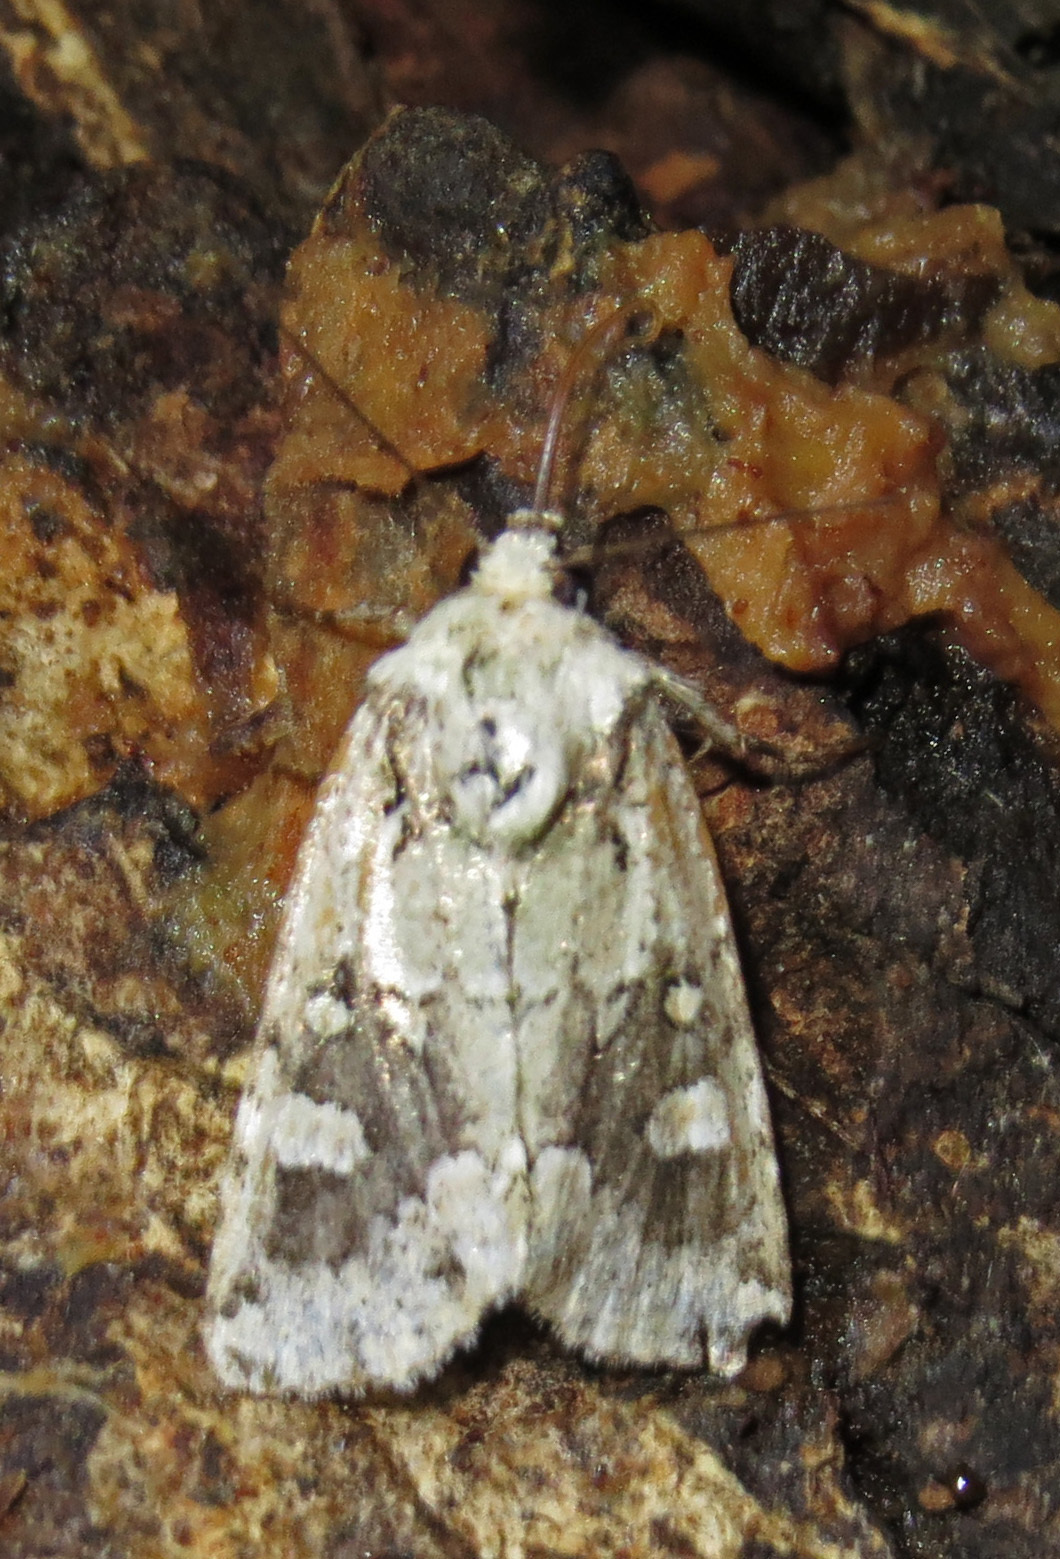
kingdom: Animalia
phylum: Arthropoda
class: Insecta
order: Lepidoptera
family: Noctuidae
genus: Lacinipolia
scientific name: Lacinipolia laudabilis
